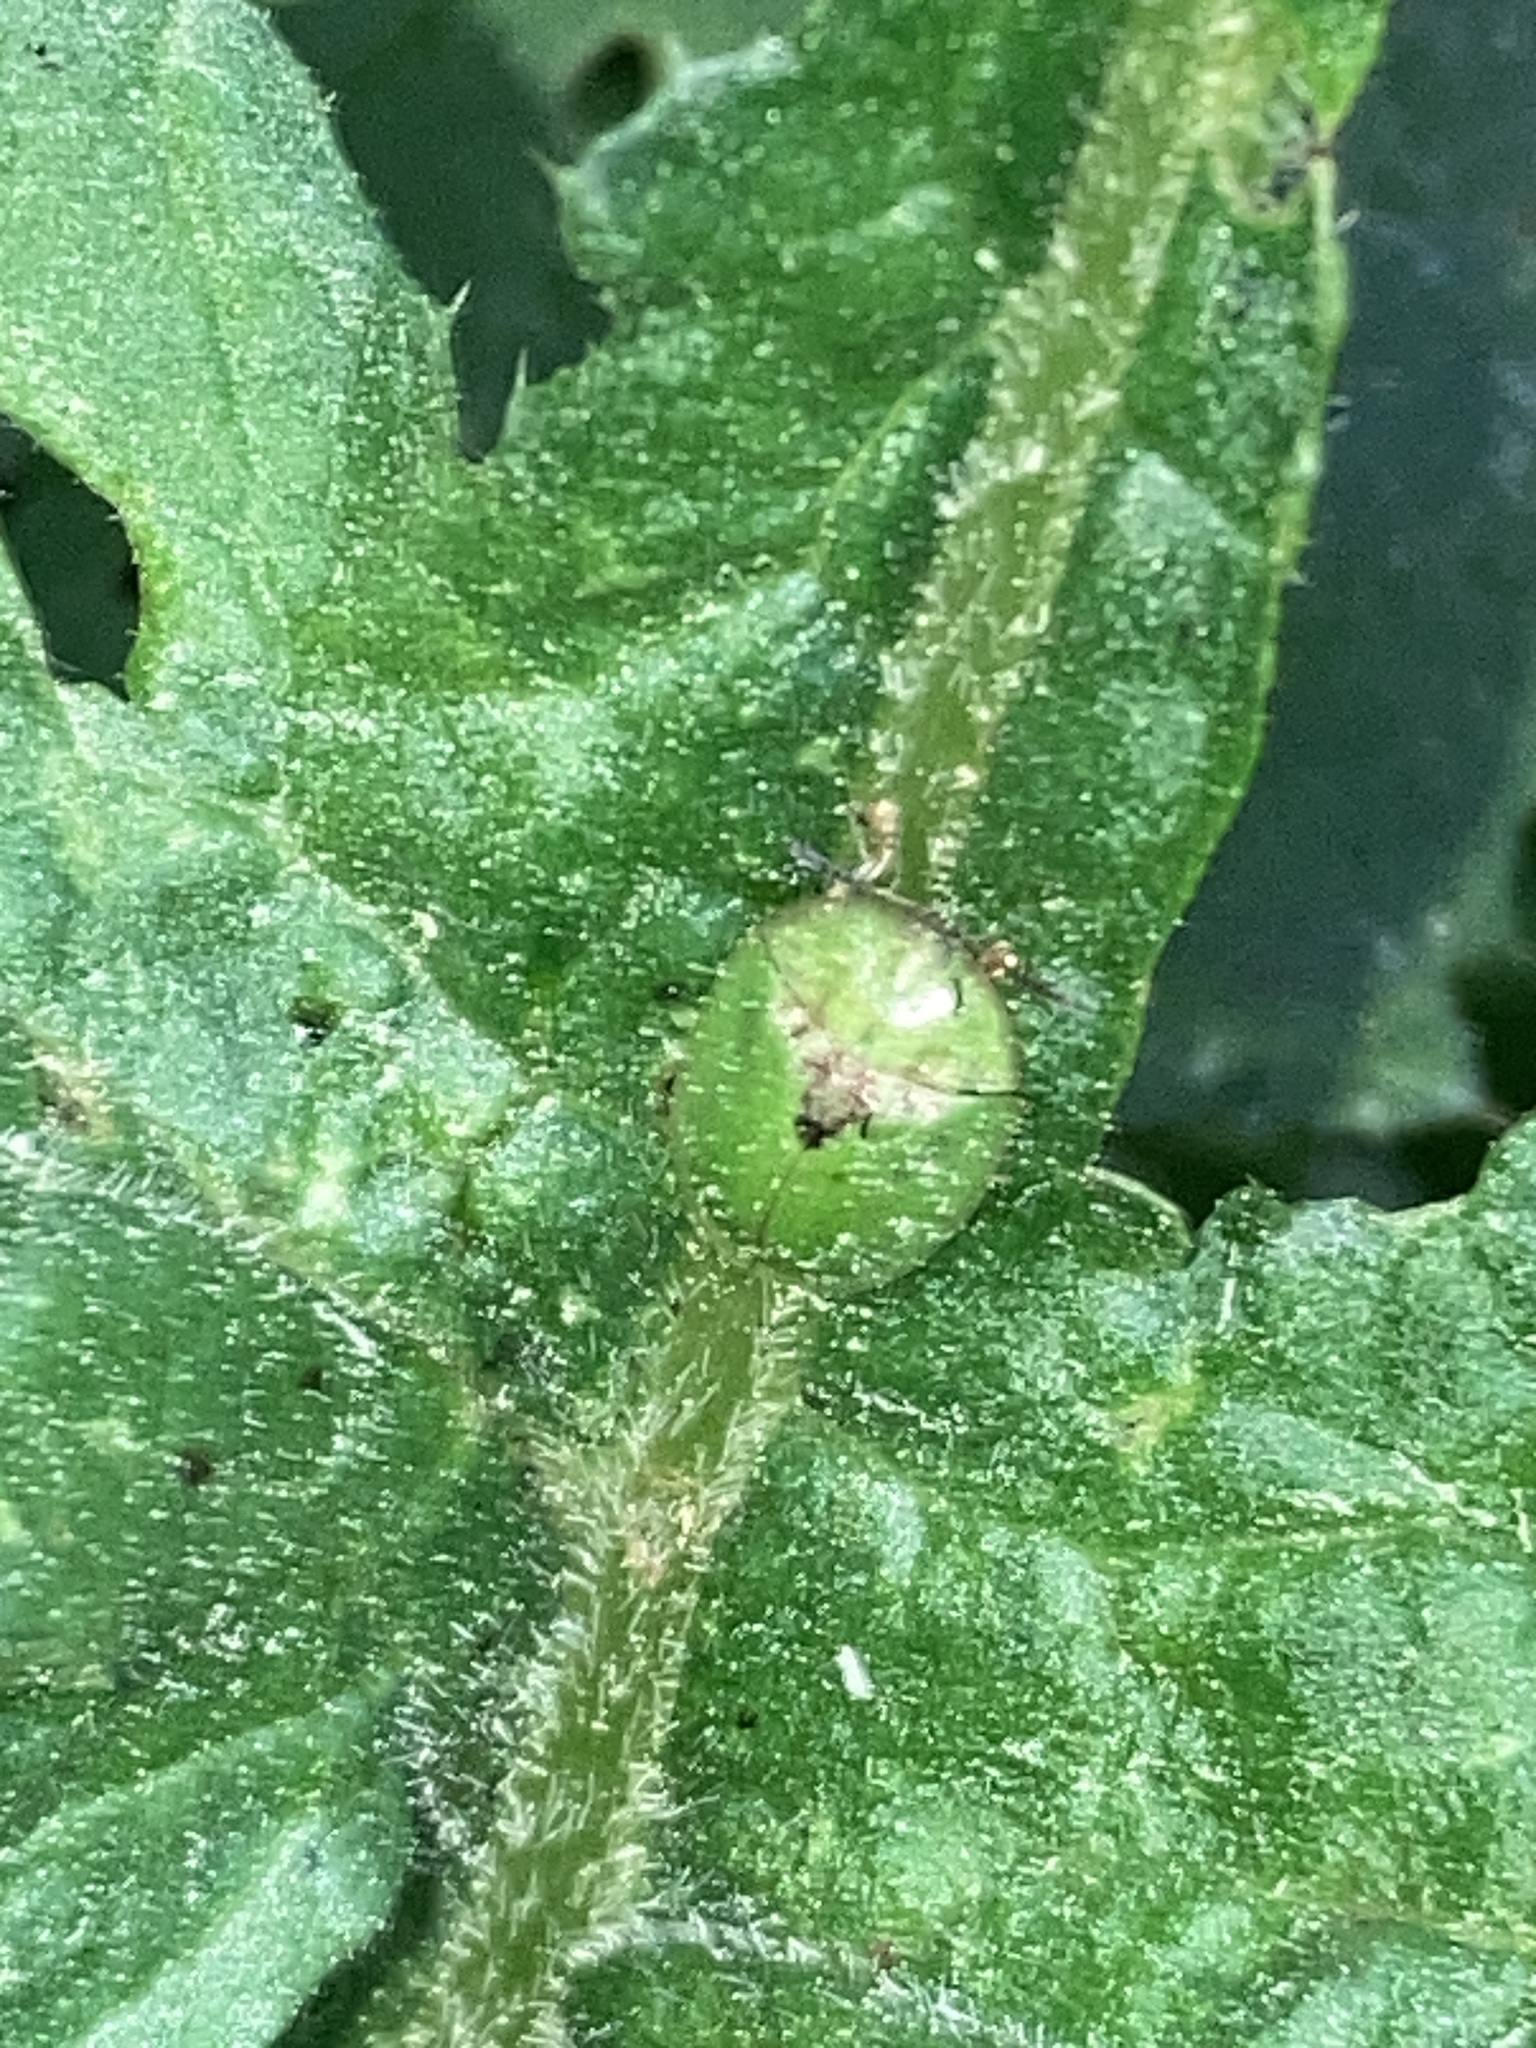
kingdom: Animalia
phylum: Arthropoda
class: Insecta
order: Coleoptera
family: Chrysomelidae
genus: Cassida
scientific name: Cassida rubiginosa
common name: Thistle tortoise beetle
